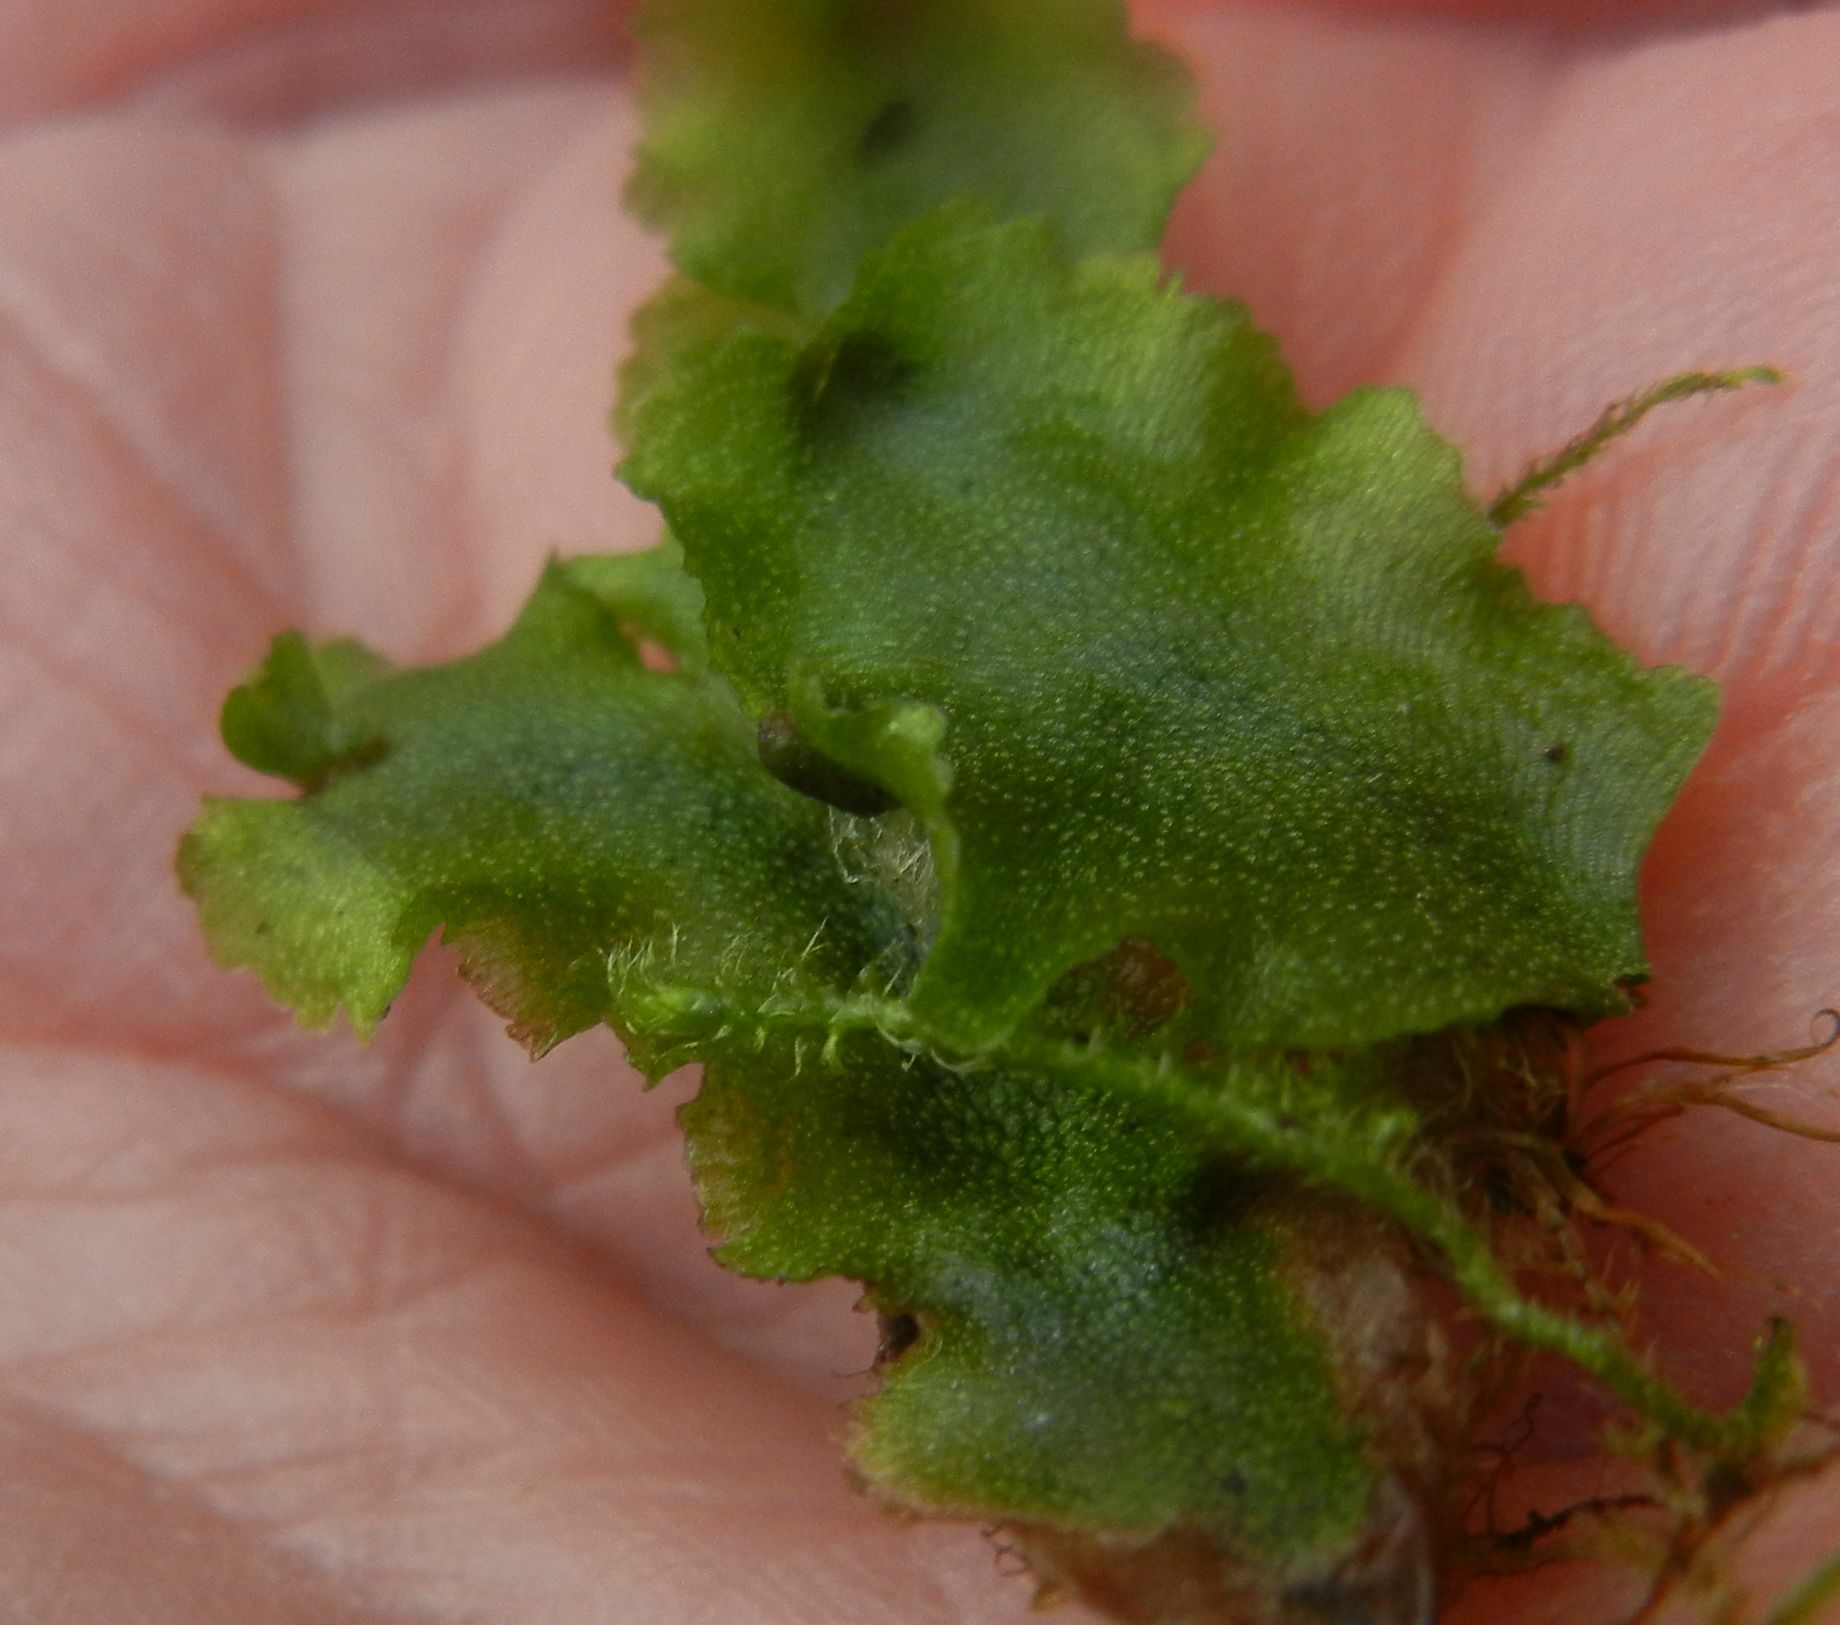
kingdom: Plantae
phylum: Marchantiophyta
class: Marchantiopsida
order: Marchantiales
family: Marchantiaceae
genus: Marchantia
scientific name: Marchantia quadrata
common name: Narrow mushroom-headed liverwort
